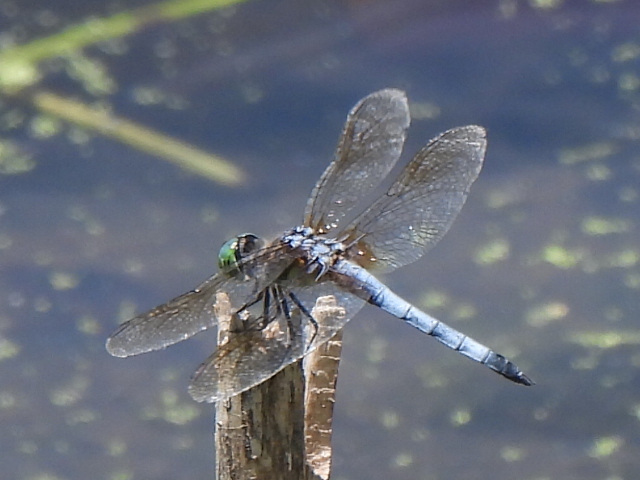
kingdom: Animalia
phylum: Arthropoda
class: Insecta
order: Odonata
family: Libellulidae
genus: Pachydiplax
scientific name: Pachydiplax longipennis
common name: Blue dasher
